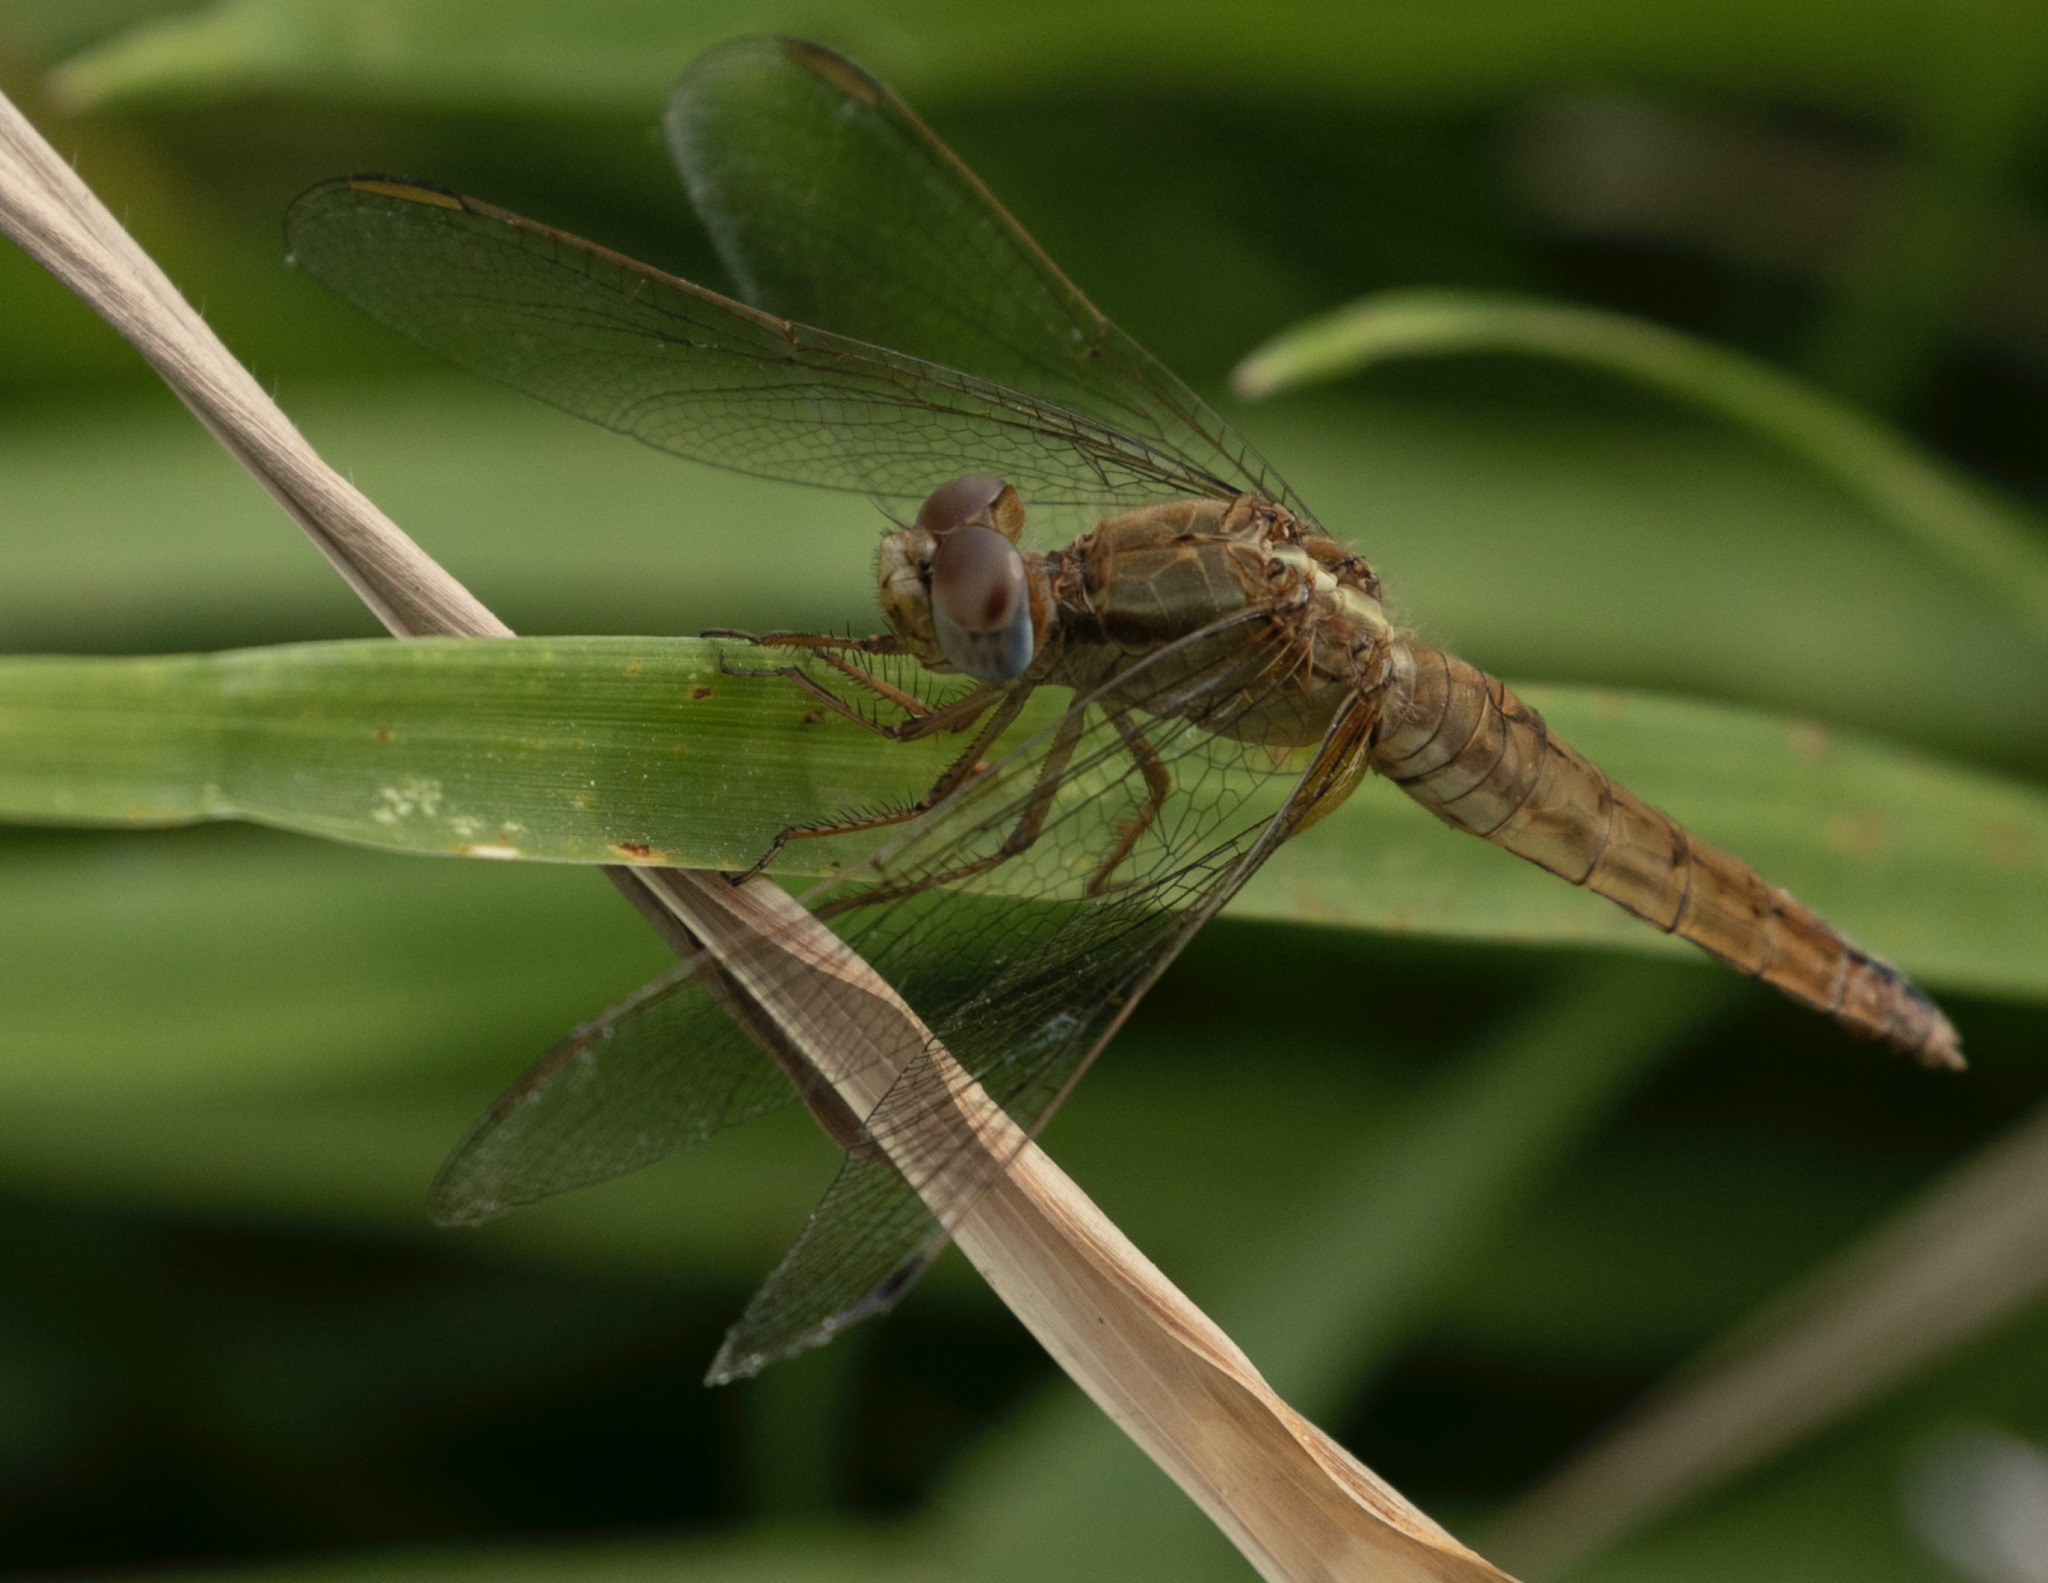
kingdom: Animalia
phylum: Arthropoda
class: Insecta
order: Odonata
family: Libellulidae
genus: Crocothemis
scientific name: Crocothemis erythraea
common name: Scarlet dragonfly
